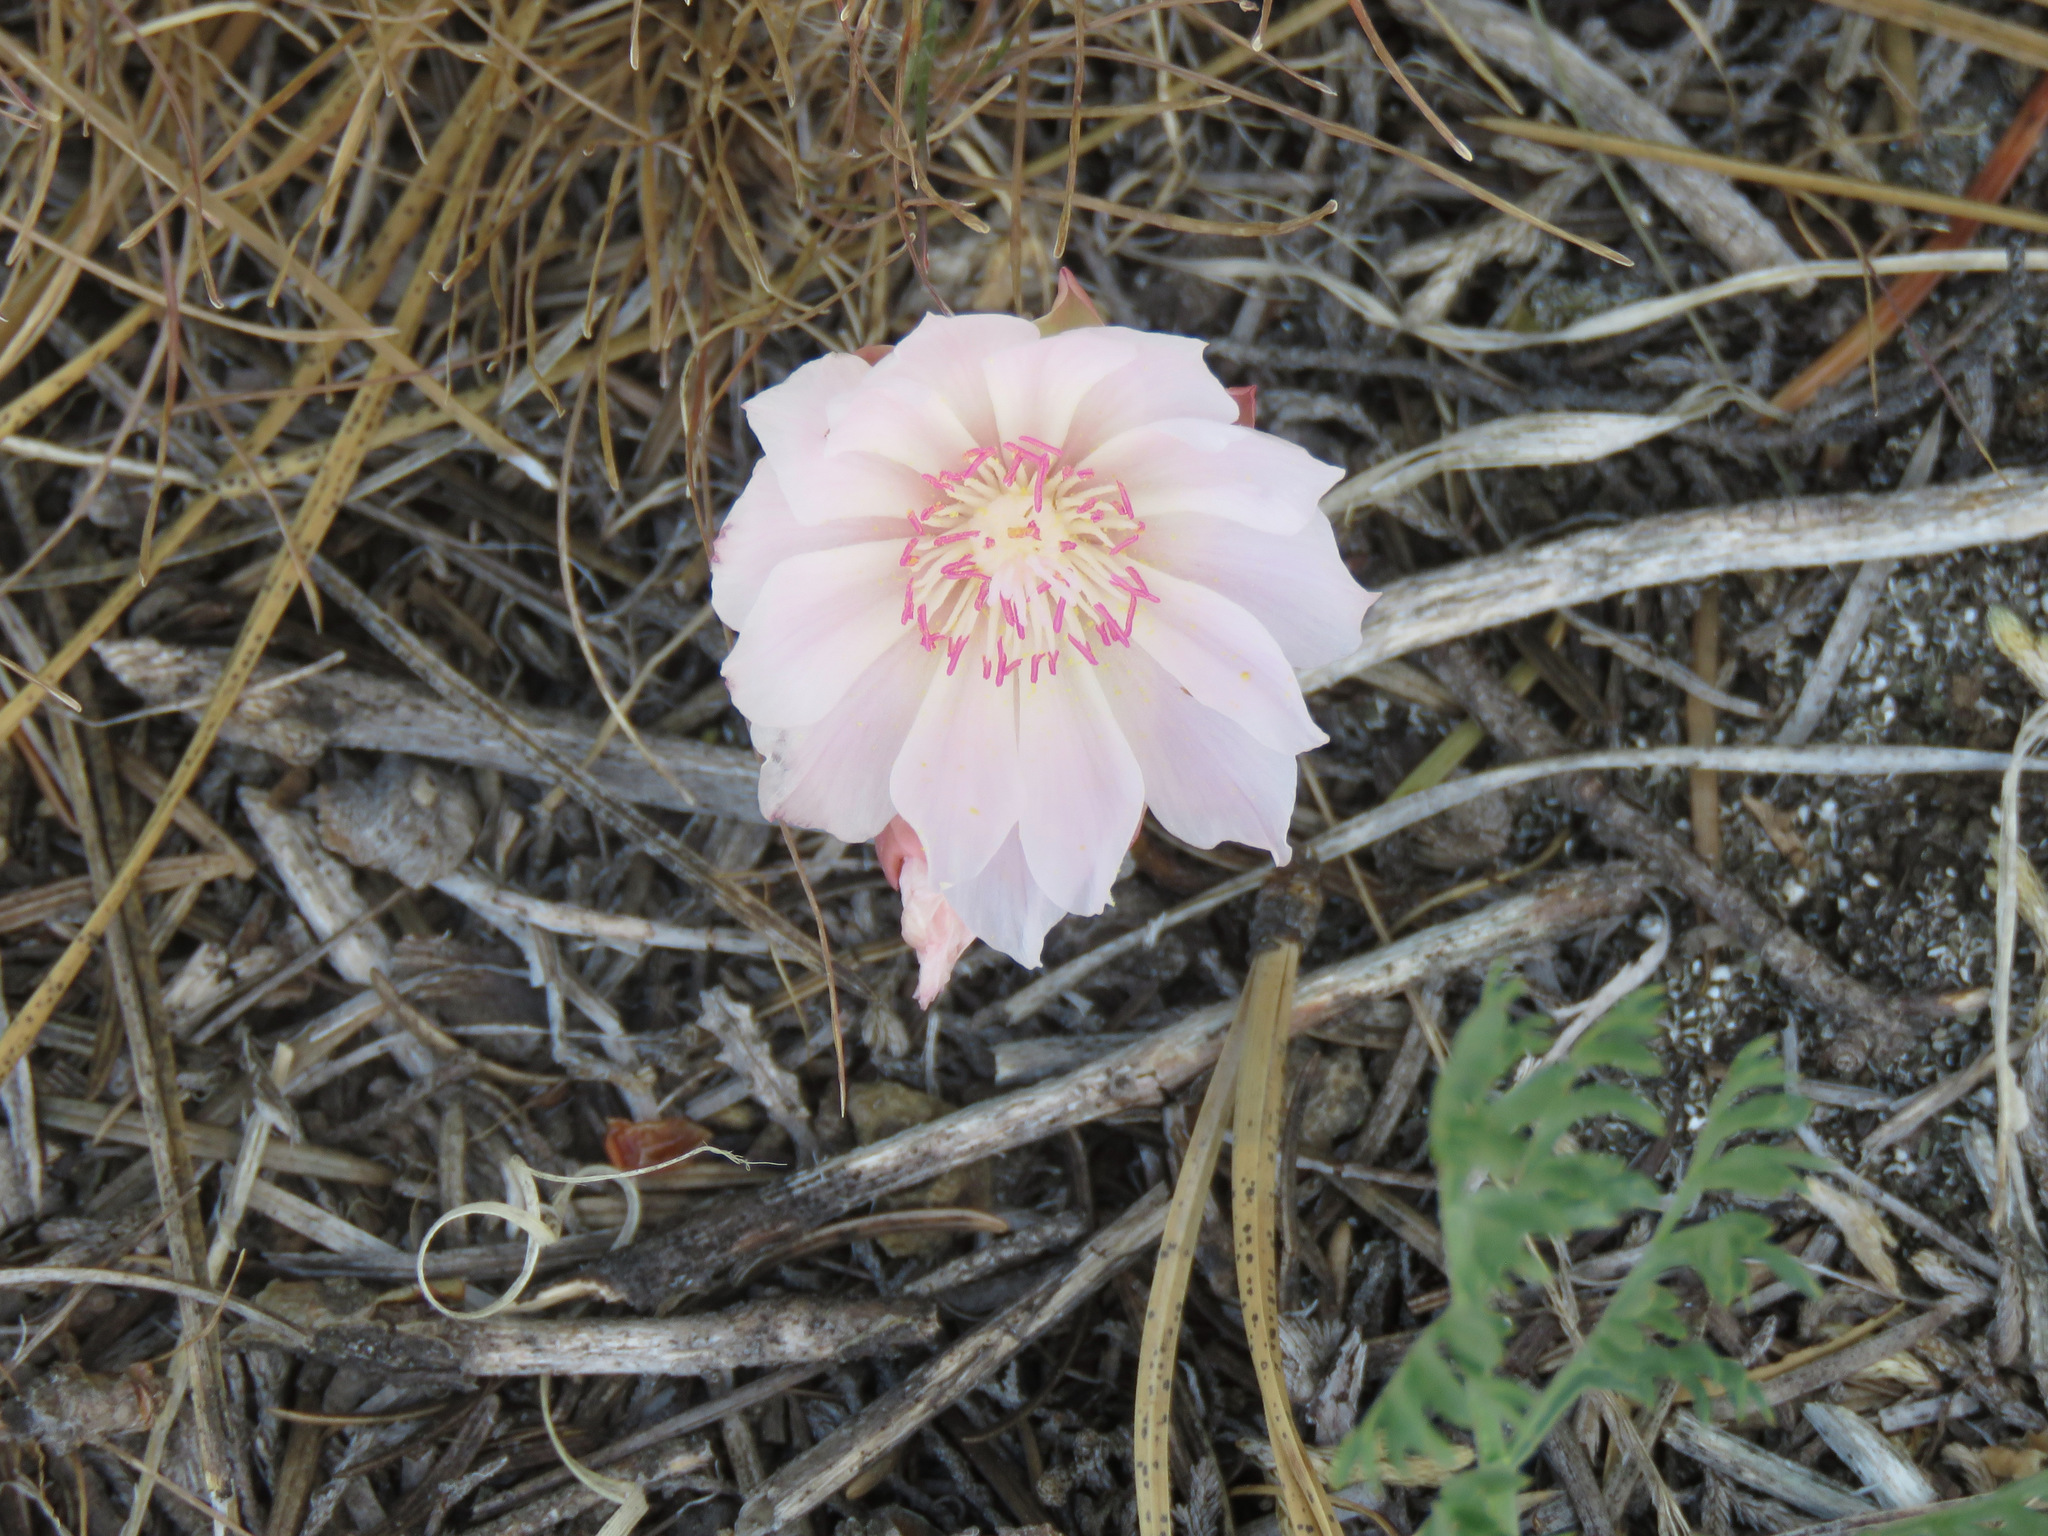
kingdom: Plantae
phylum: Tracheophyta
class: Magnoliopsida
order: Caryophyllales
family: Montiaceae
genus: Lewisia
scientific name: Lewisia rediviva
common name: Bitter-root
